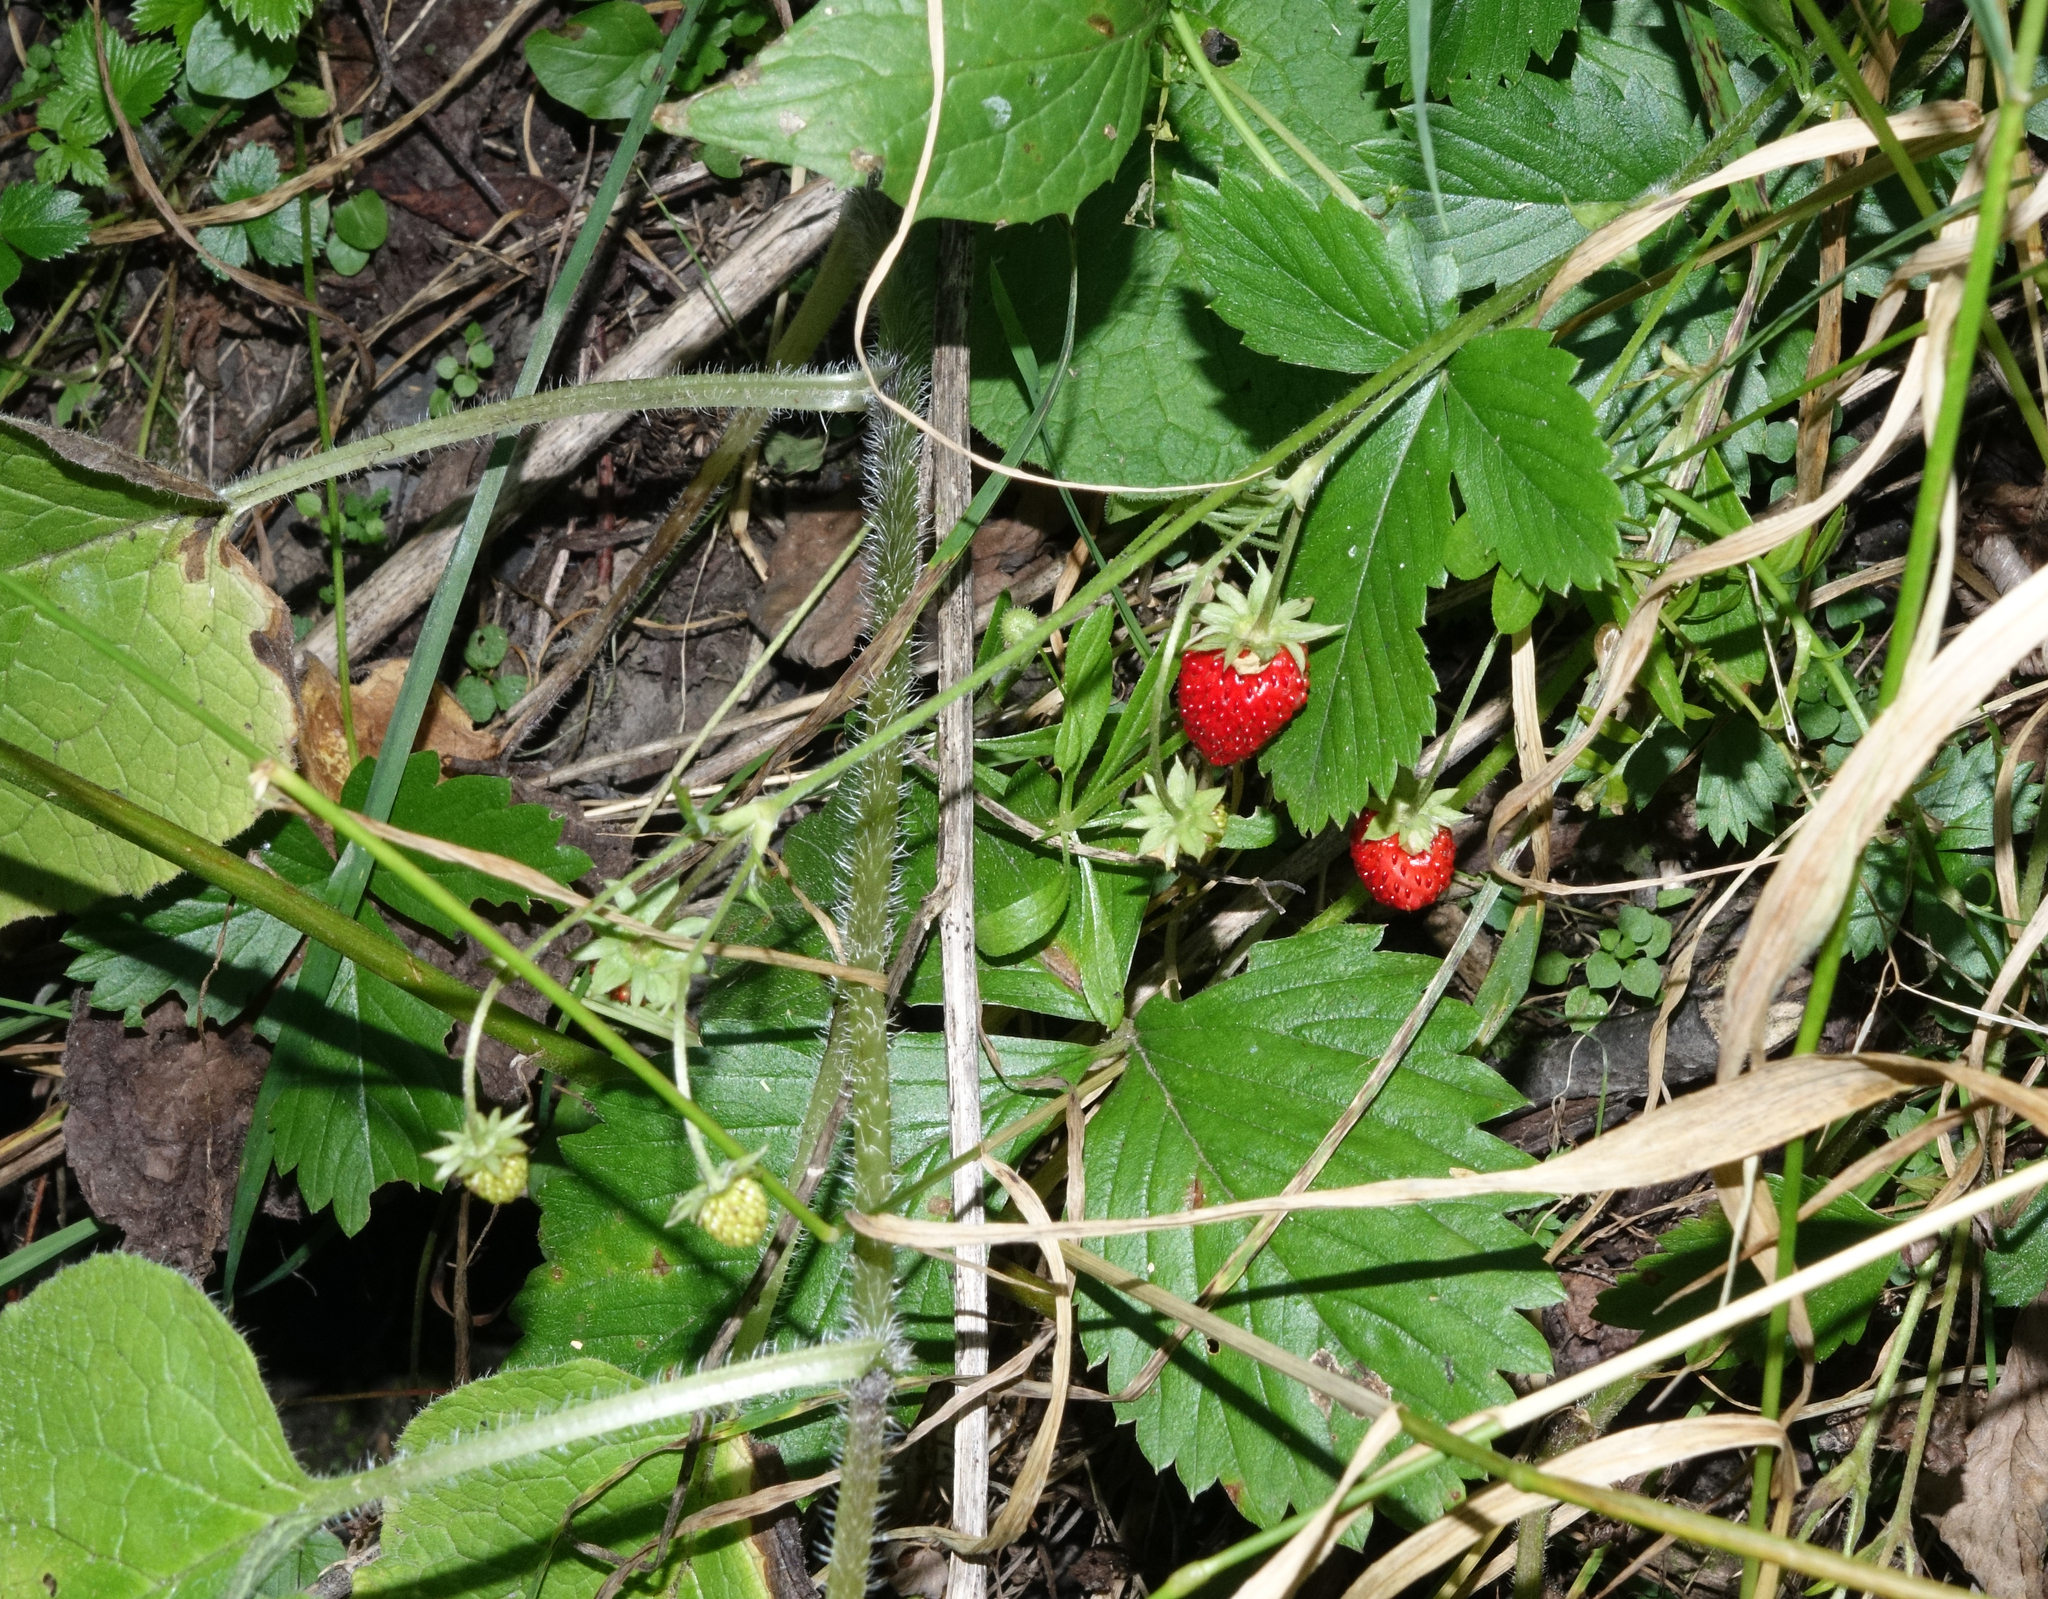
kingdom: Plantae
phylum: Tracheophyta
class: Magnoliopsida
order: Rosales
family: Rosaceae
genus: Fragaria
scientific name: Fragaria vesca
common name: Wild strawberry
